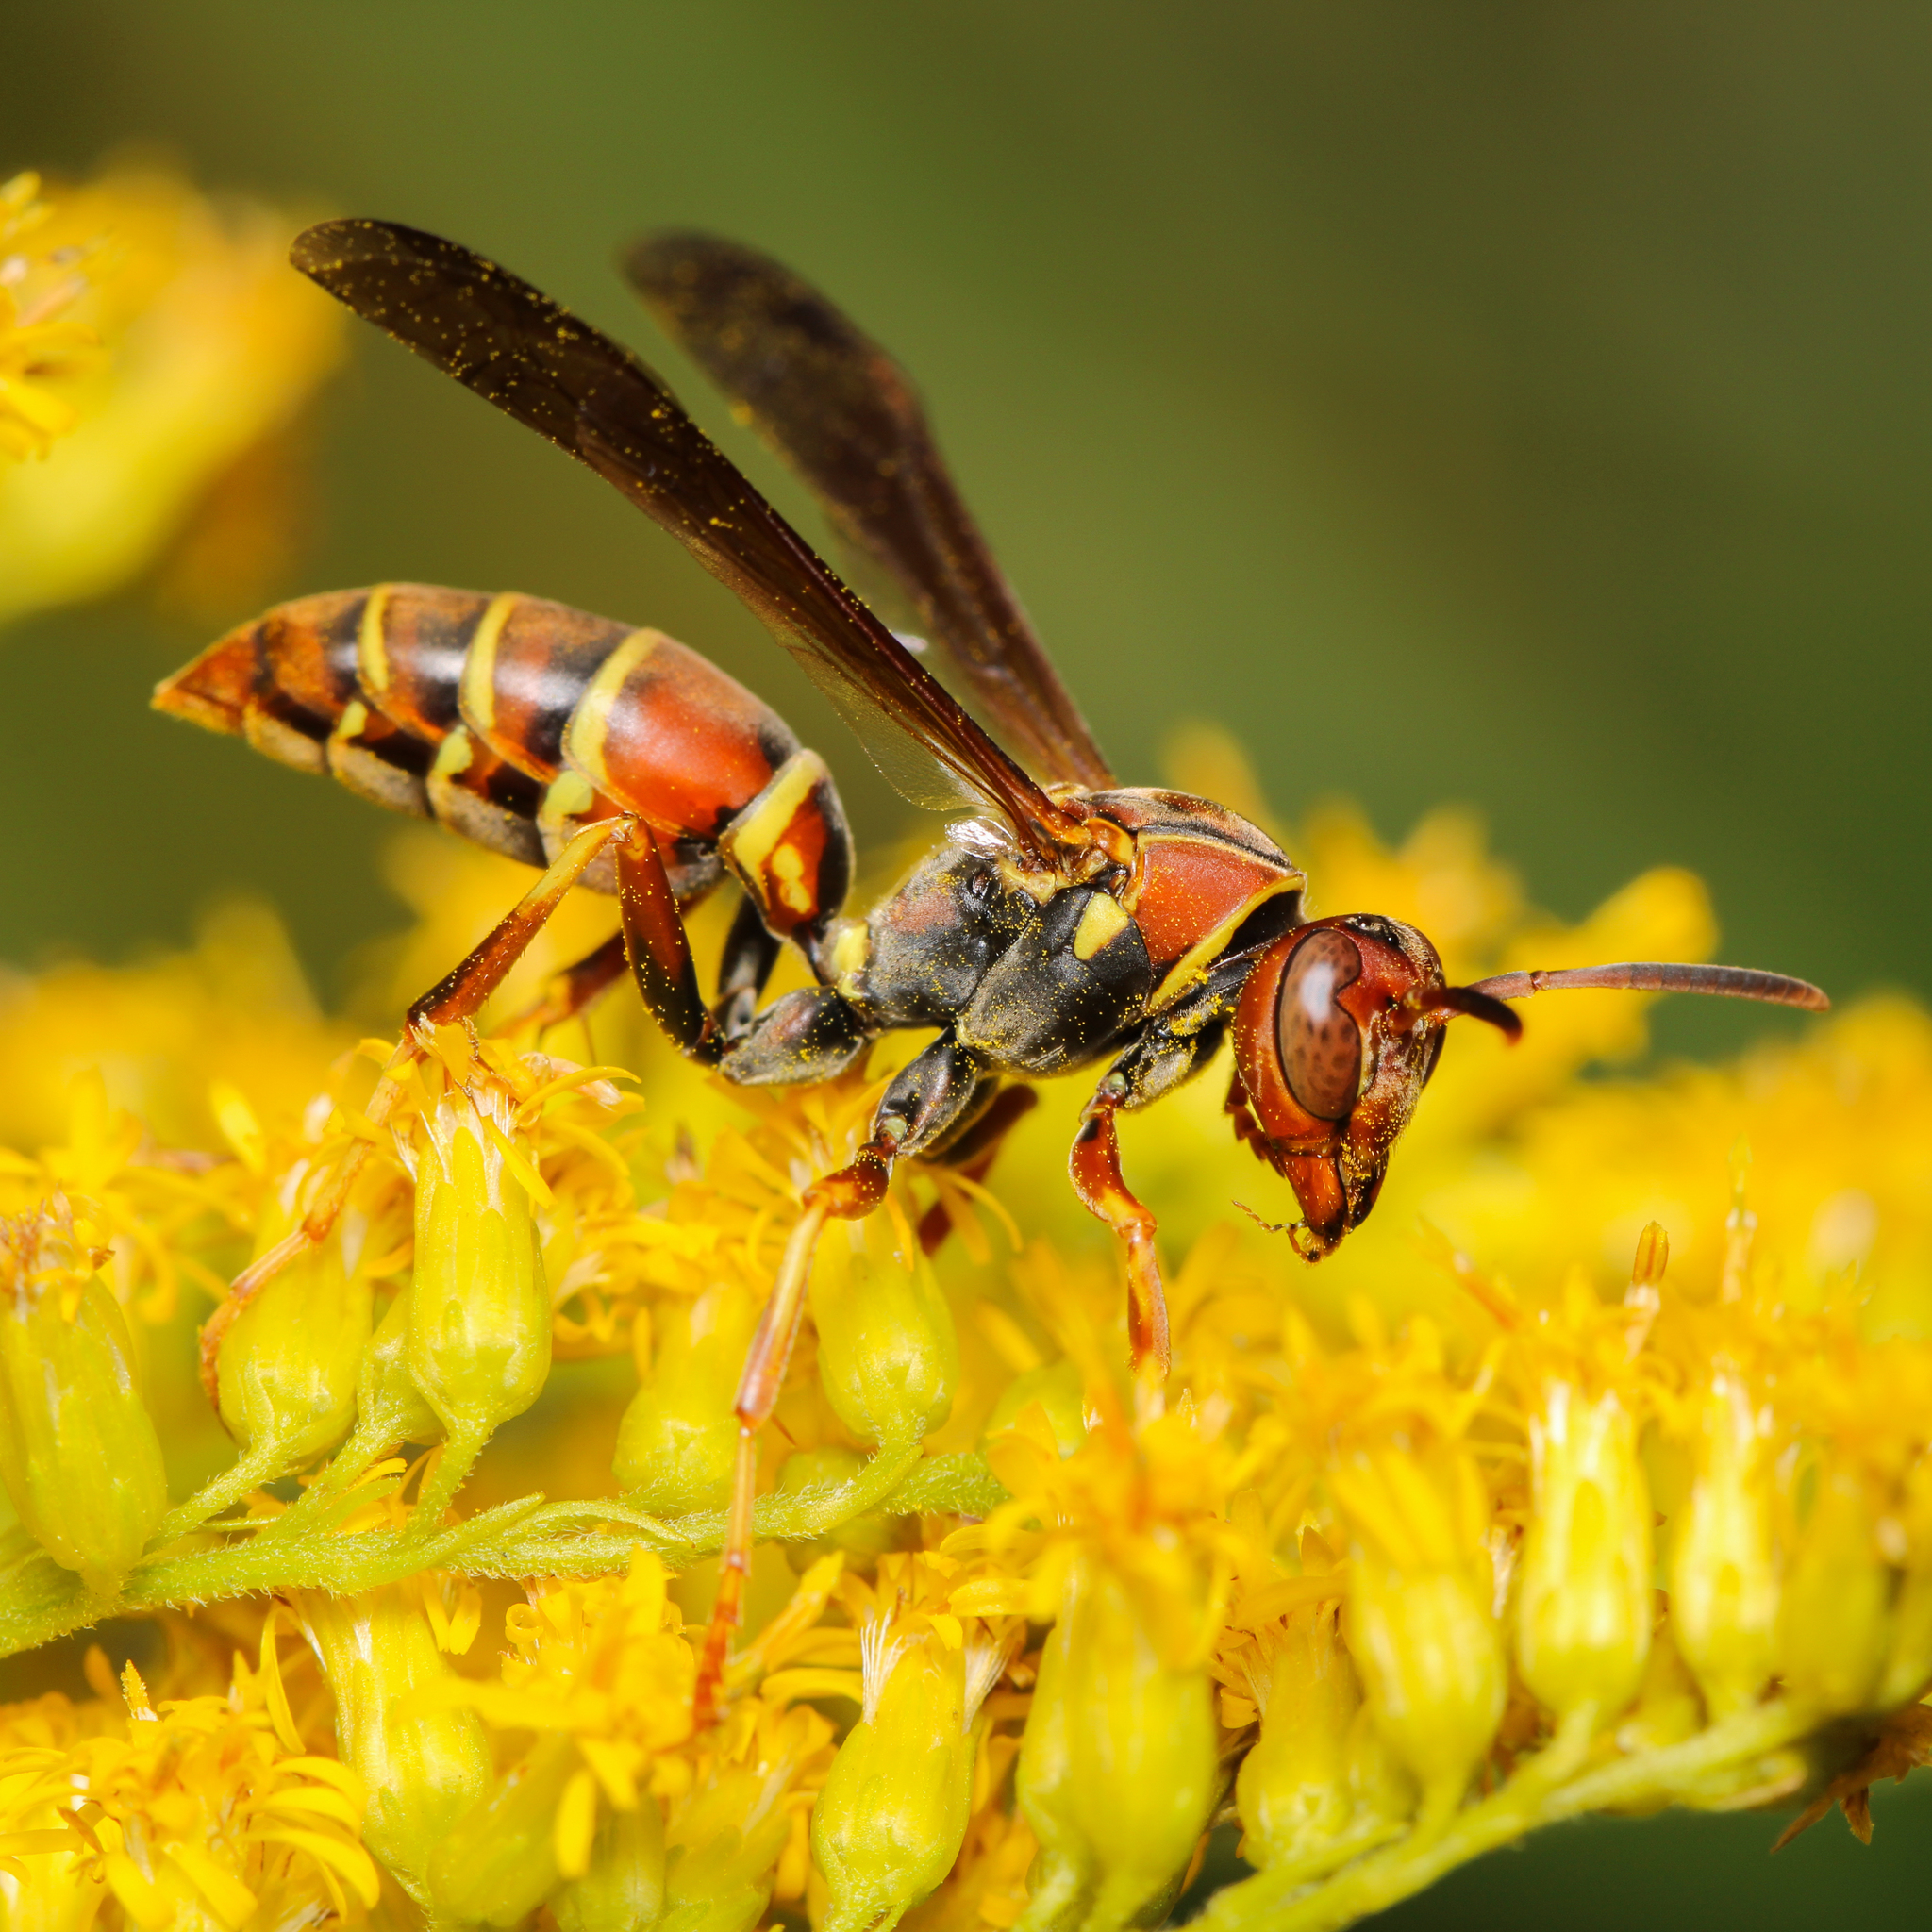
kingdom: Animalia
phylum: Arthropoda
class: Insecta
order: Hymenoptera
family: Eumenidae
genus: Polistes
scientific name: Polistes dorsalis
